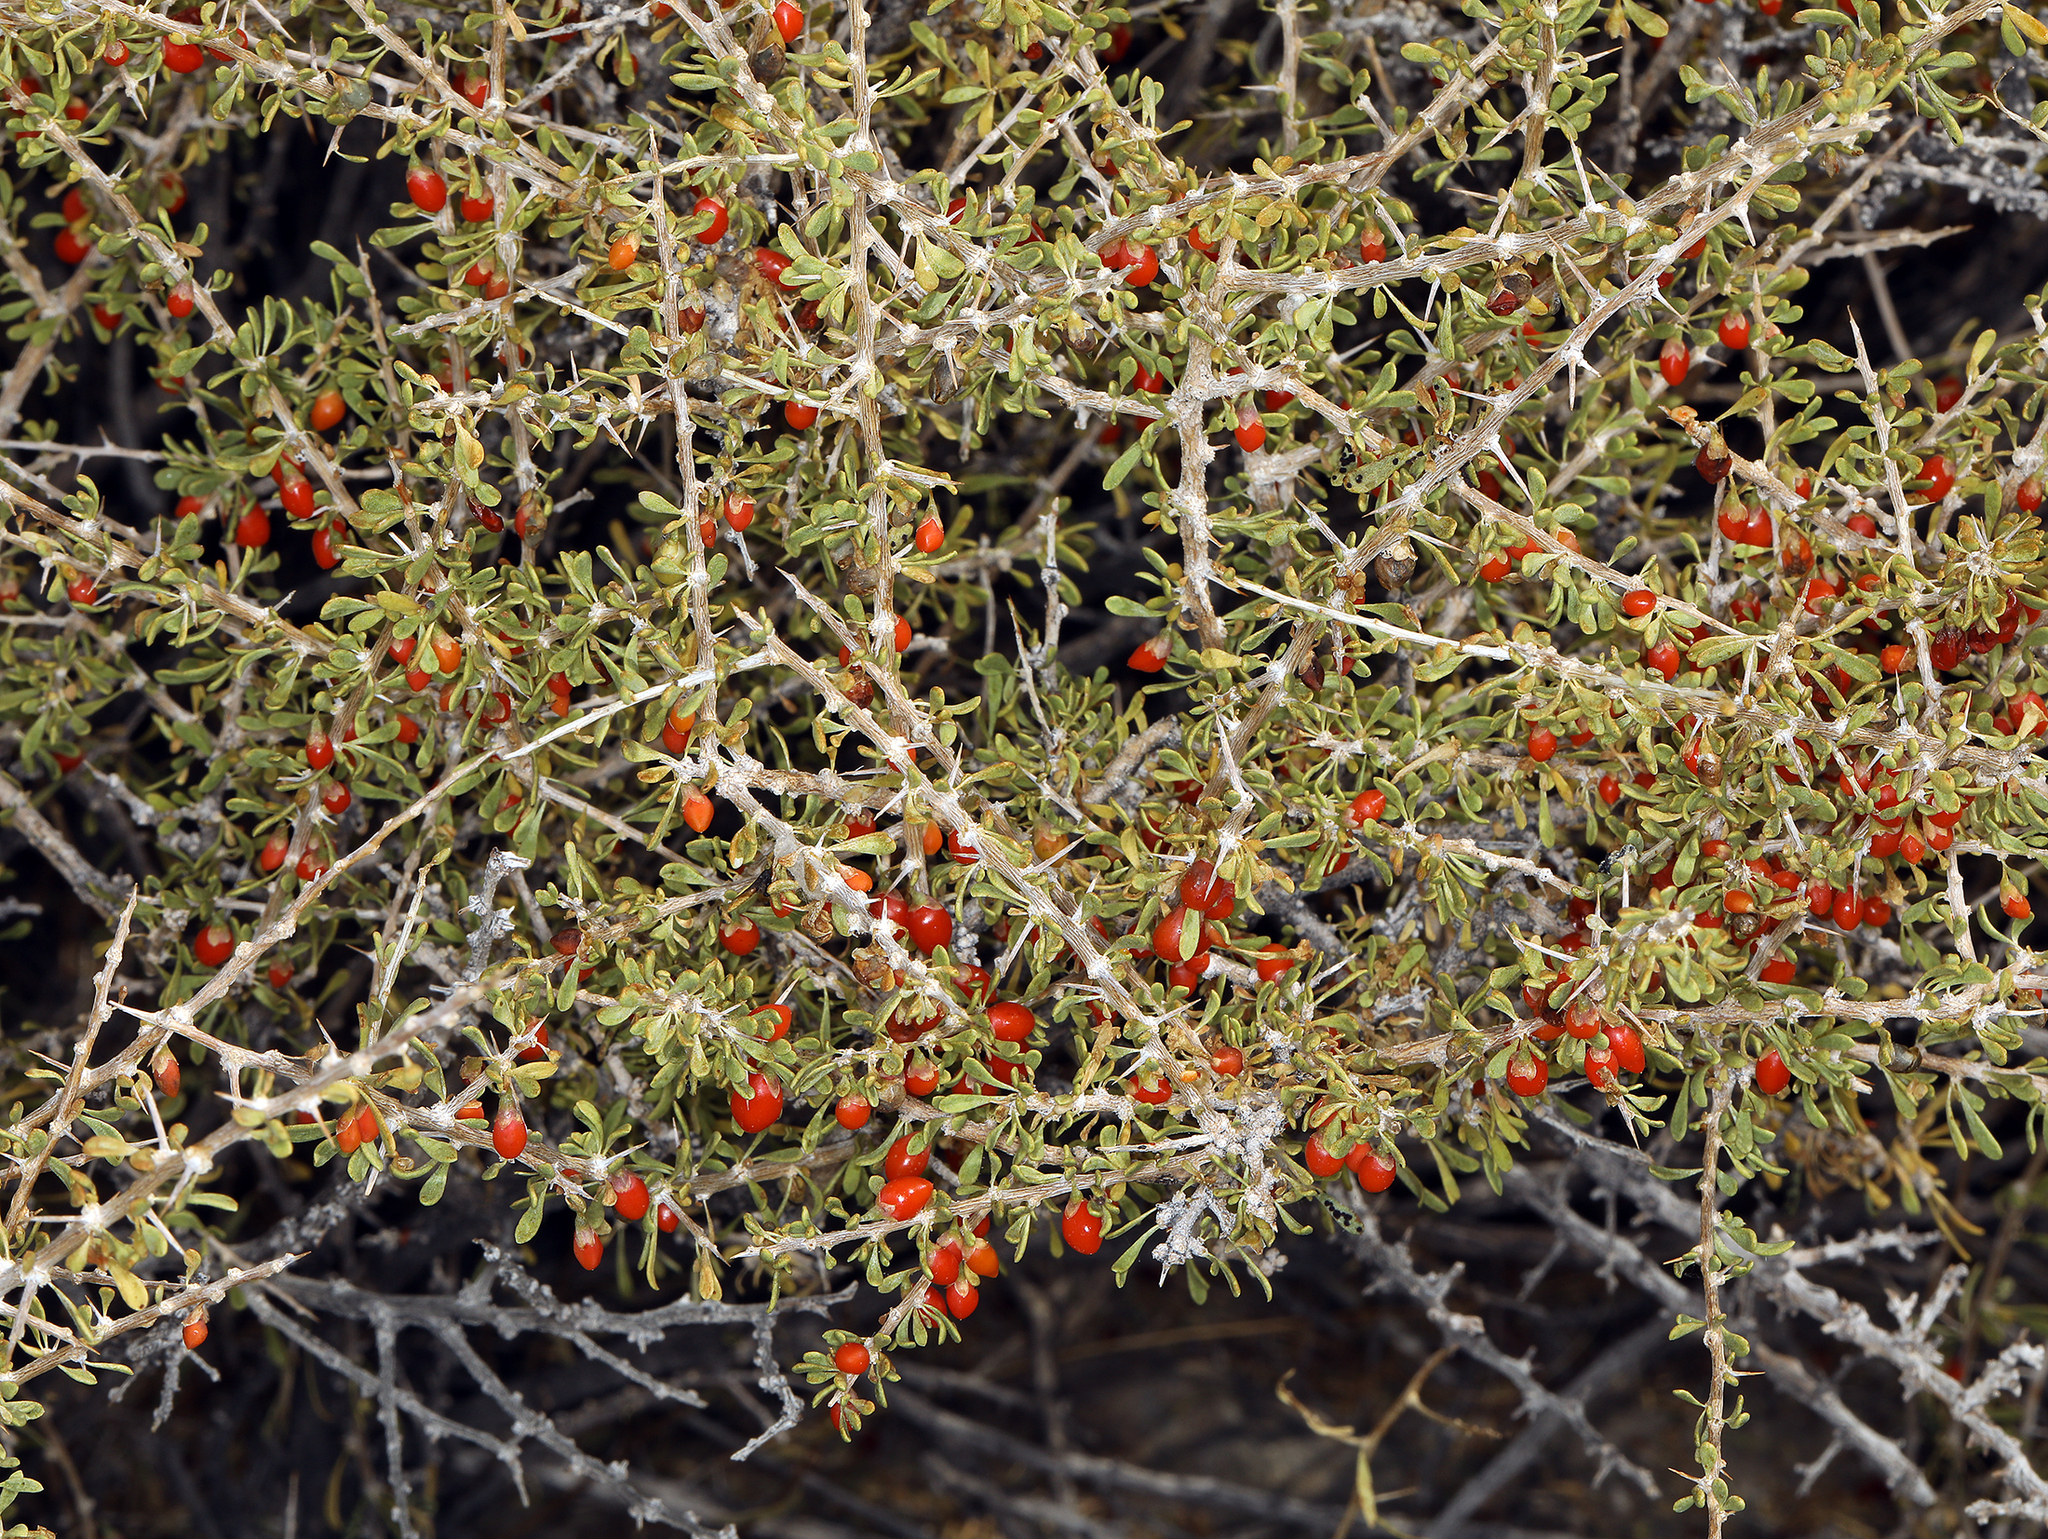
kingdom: Plantae
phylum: Tracheophyta
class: Magnoliopsida
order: Solanales
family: Solanaceae
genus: Lycium
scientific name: Lycium andersonii
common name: Water-jacket
